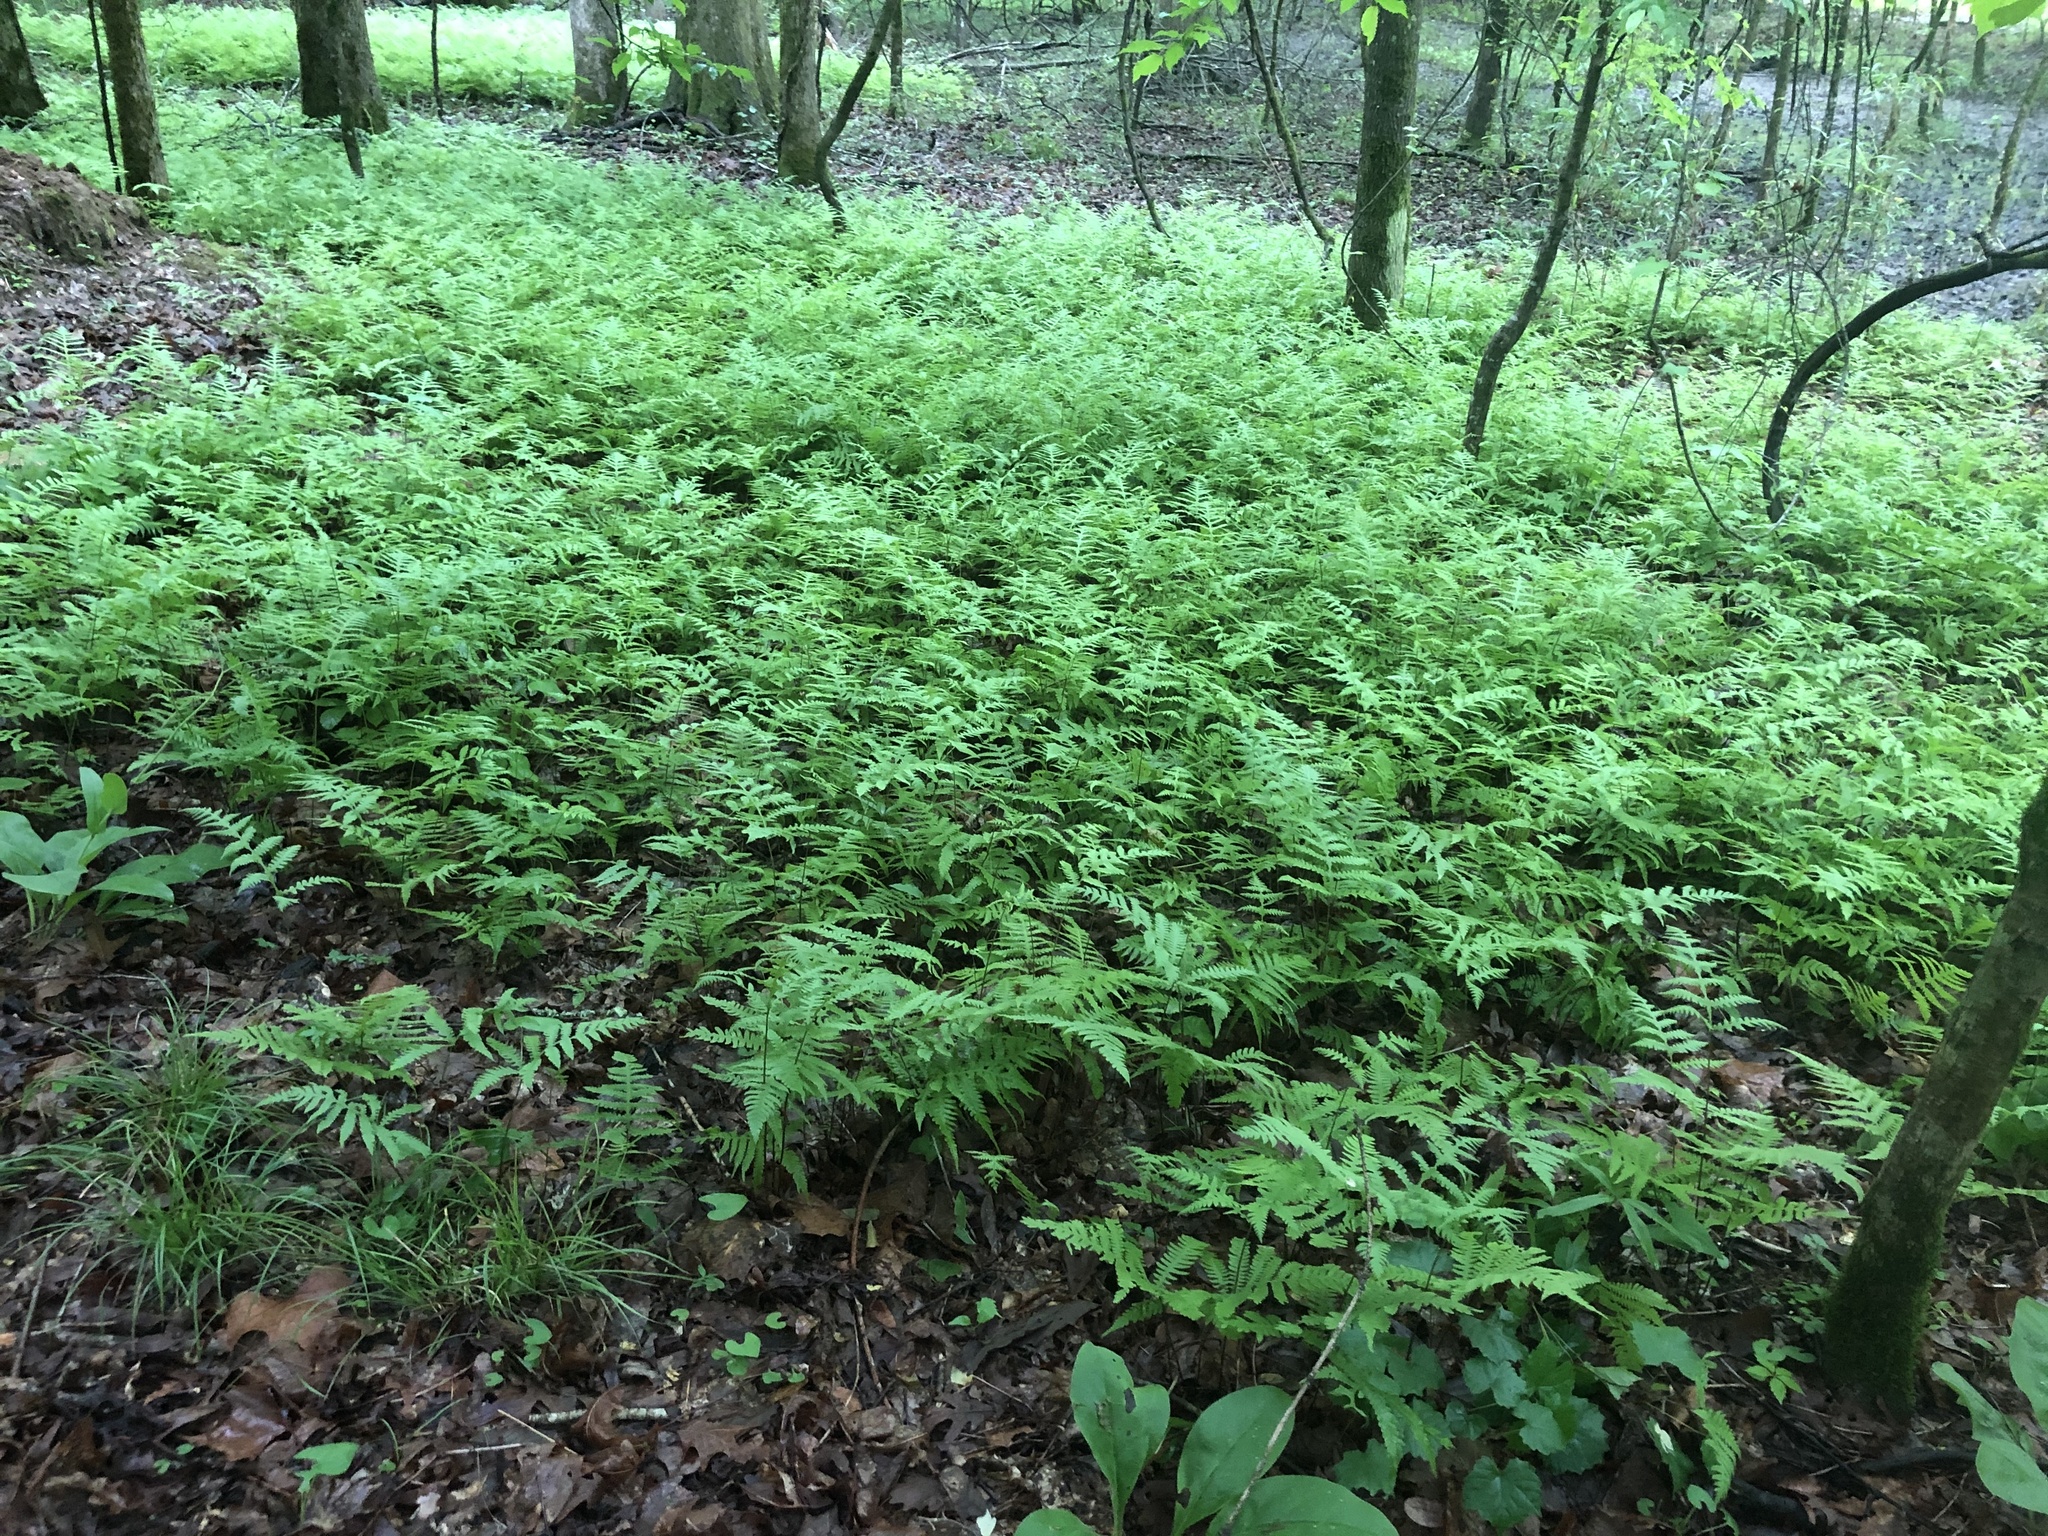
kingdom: Plantae
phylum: Tracheophyta
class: Polypodiopsida
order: Polypodiales
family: Thelypteridaceae
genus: Phegopteris
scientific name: Phegopteris hexagonoptera
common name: Broad beech fern
